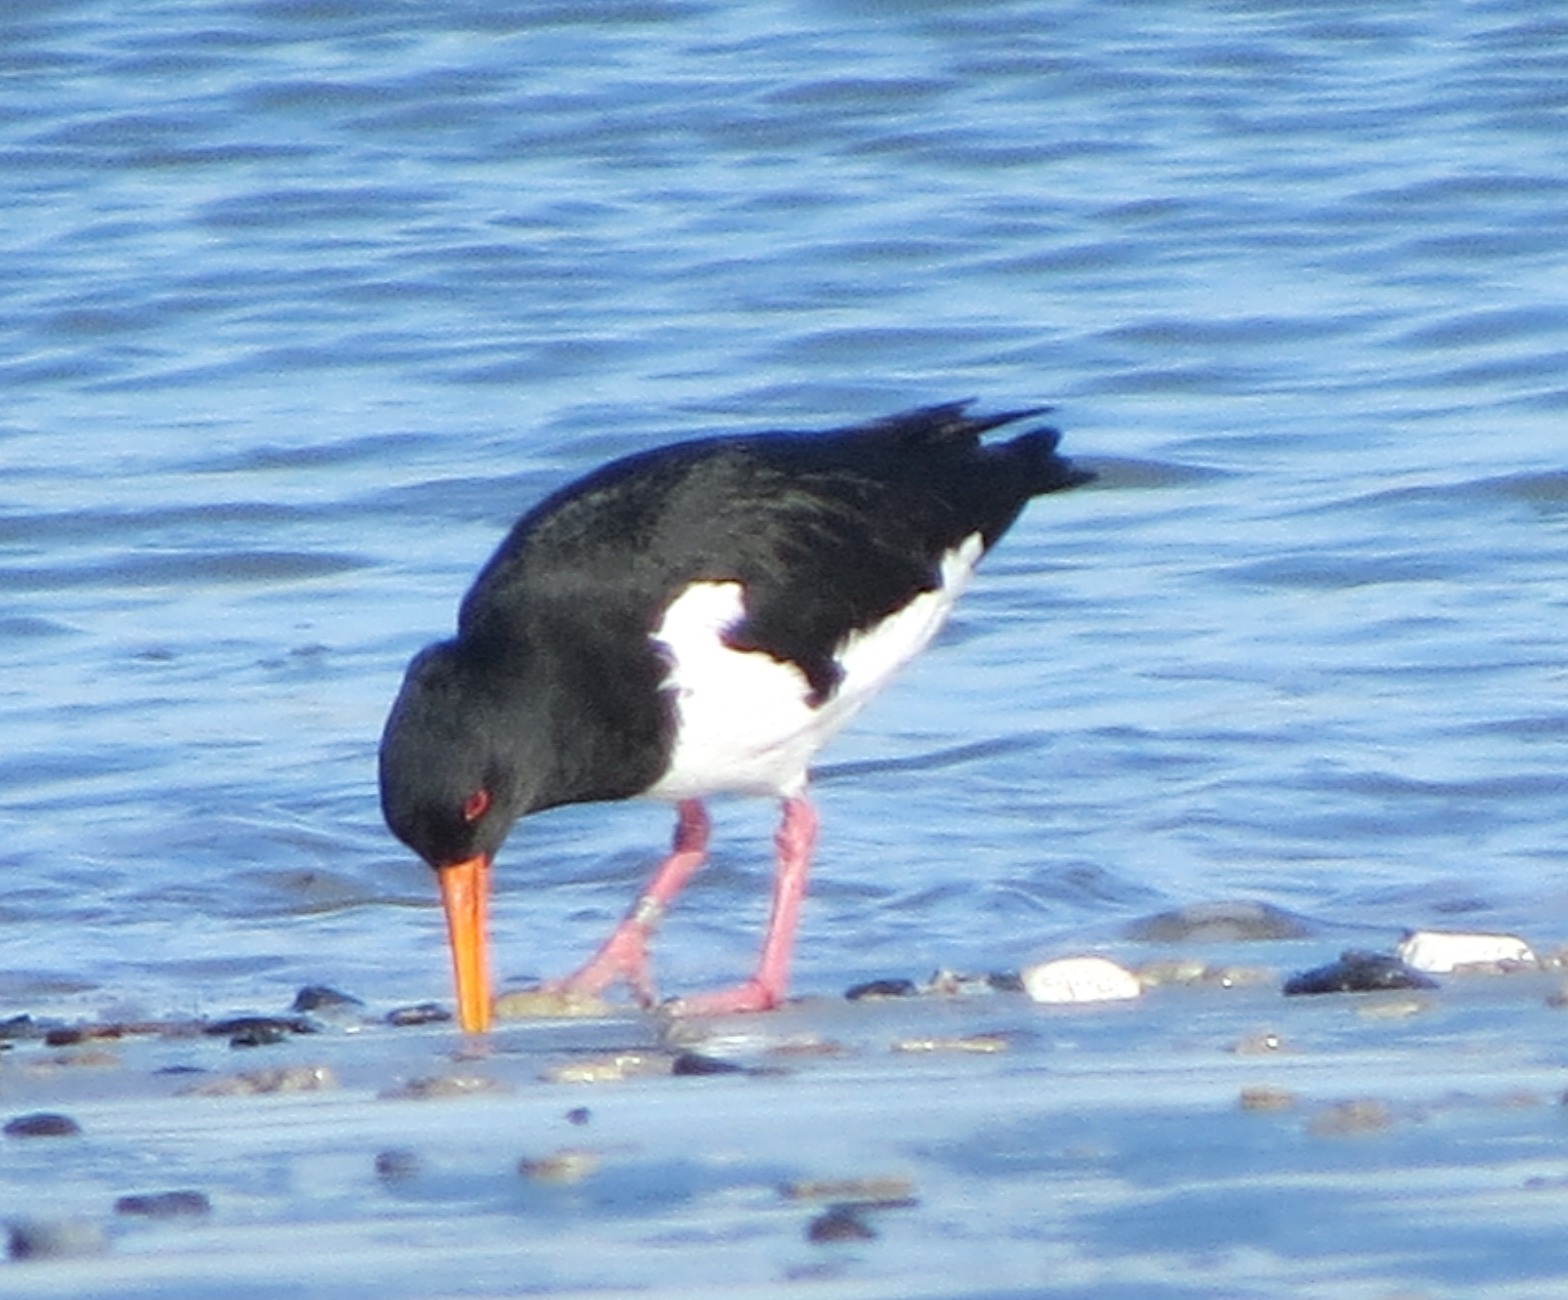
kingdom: Animalia
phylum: Chordata
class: Aves
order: Charadriiformes
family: Haematopodidae
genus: Haematopus
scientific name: Haematopus ostralegus
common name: Eurasian oystercatcher
